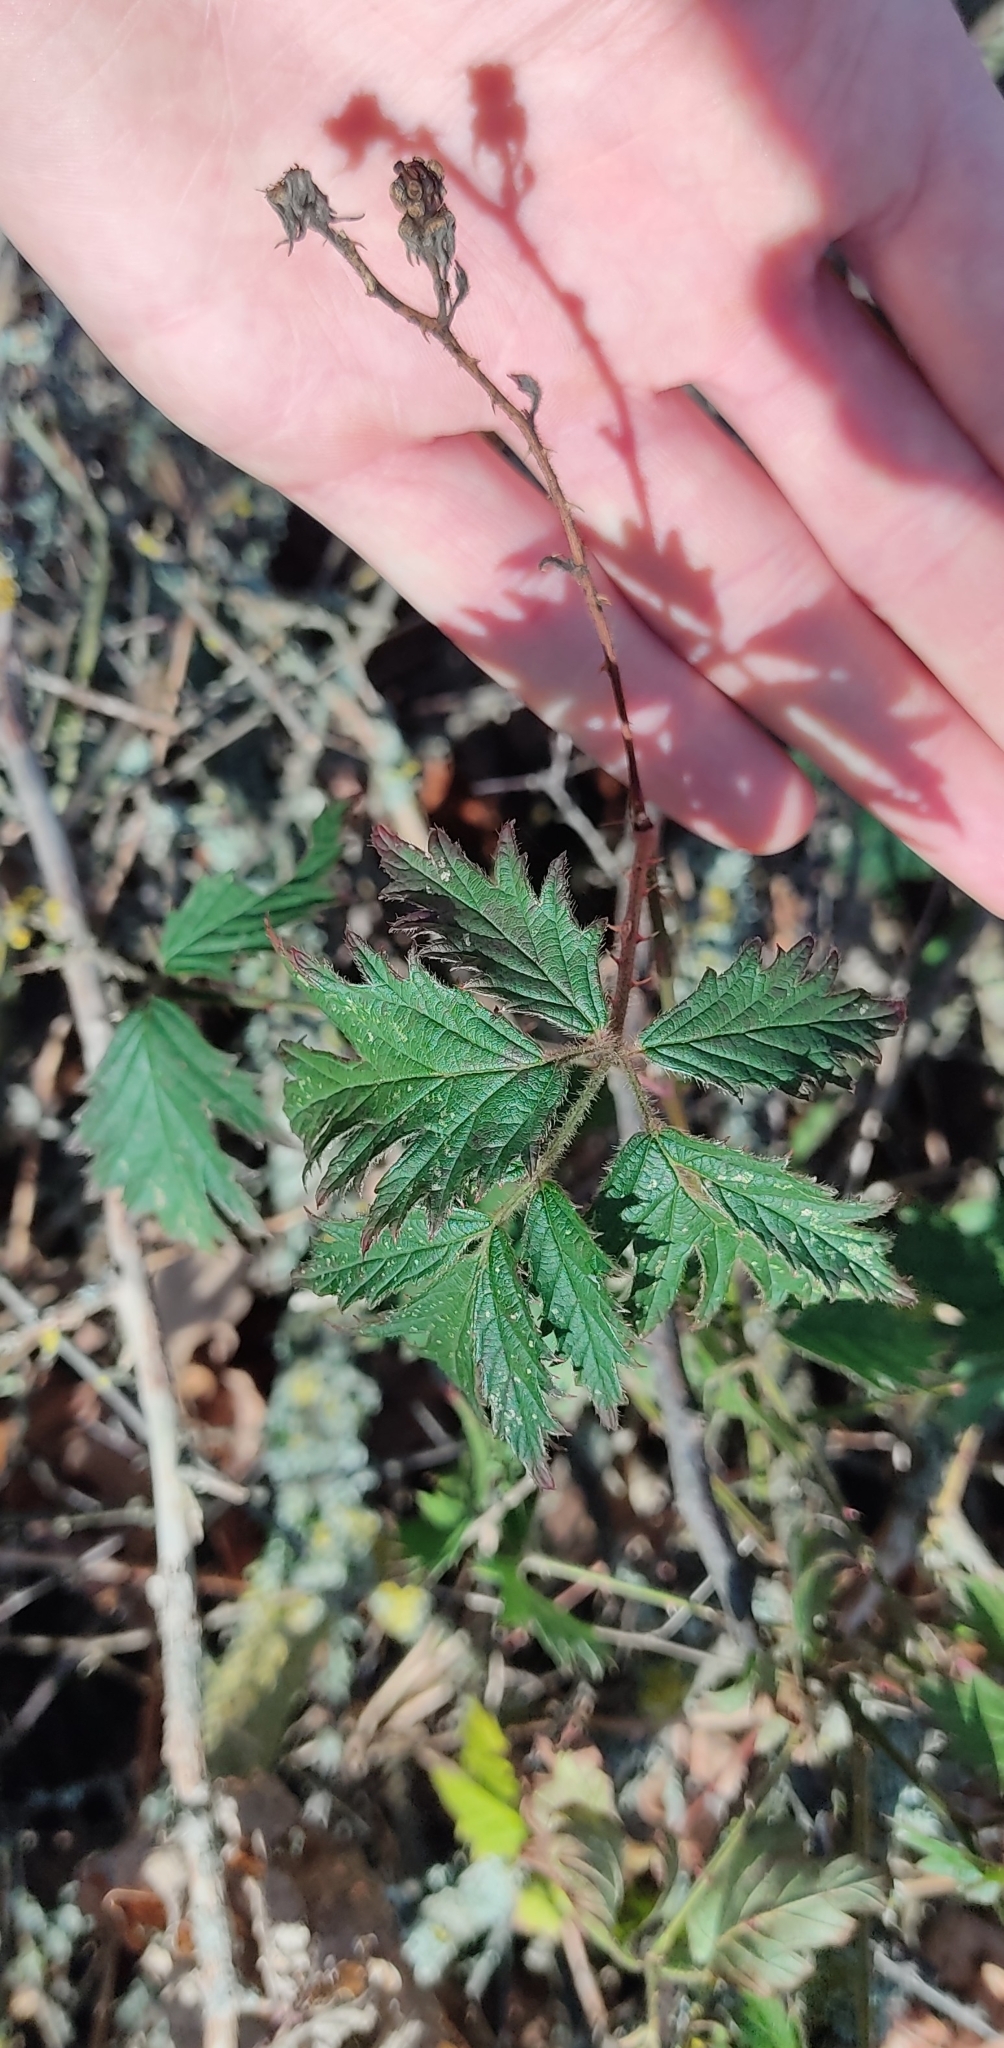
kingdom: Plantae
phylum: Tracheophyta
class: Magnoliopsida
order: Rosales
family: Rosaceae
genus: Rubus
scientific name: Rubus laciniatus
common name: Evergreen blackberry
